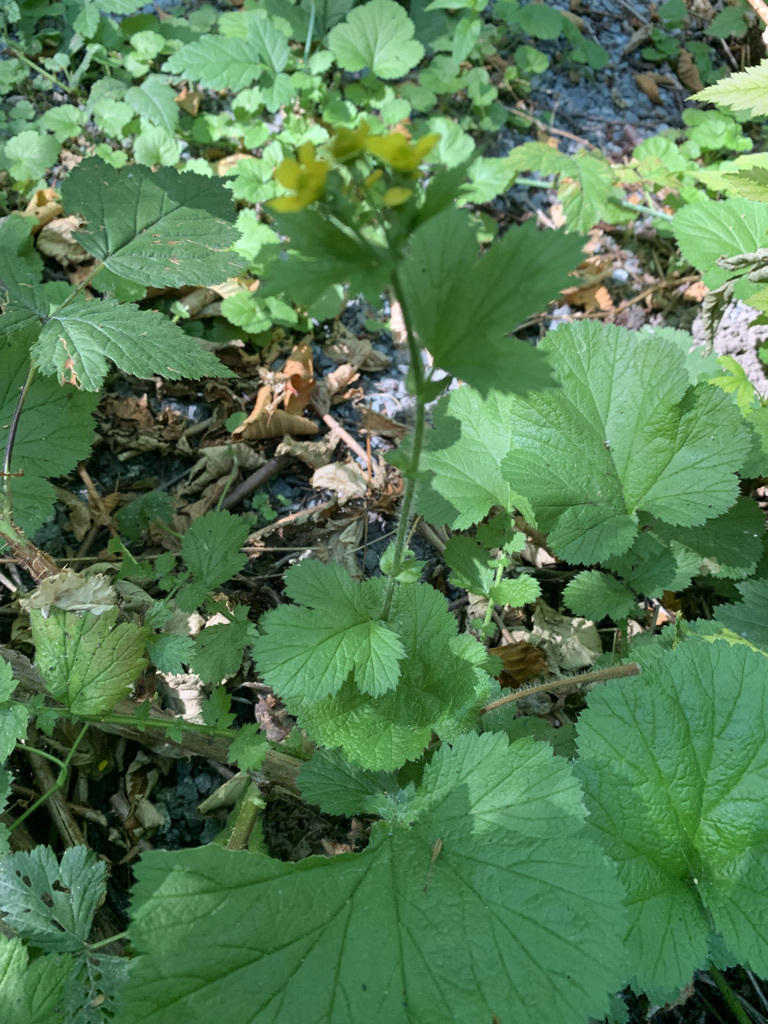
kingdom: Plantae
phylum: Tracheophyta
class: Magnoliopsida
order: Rosales
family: Rosaceae
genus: Geum
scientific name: Geum macrophyllum
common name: Large-leaved avens
